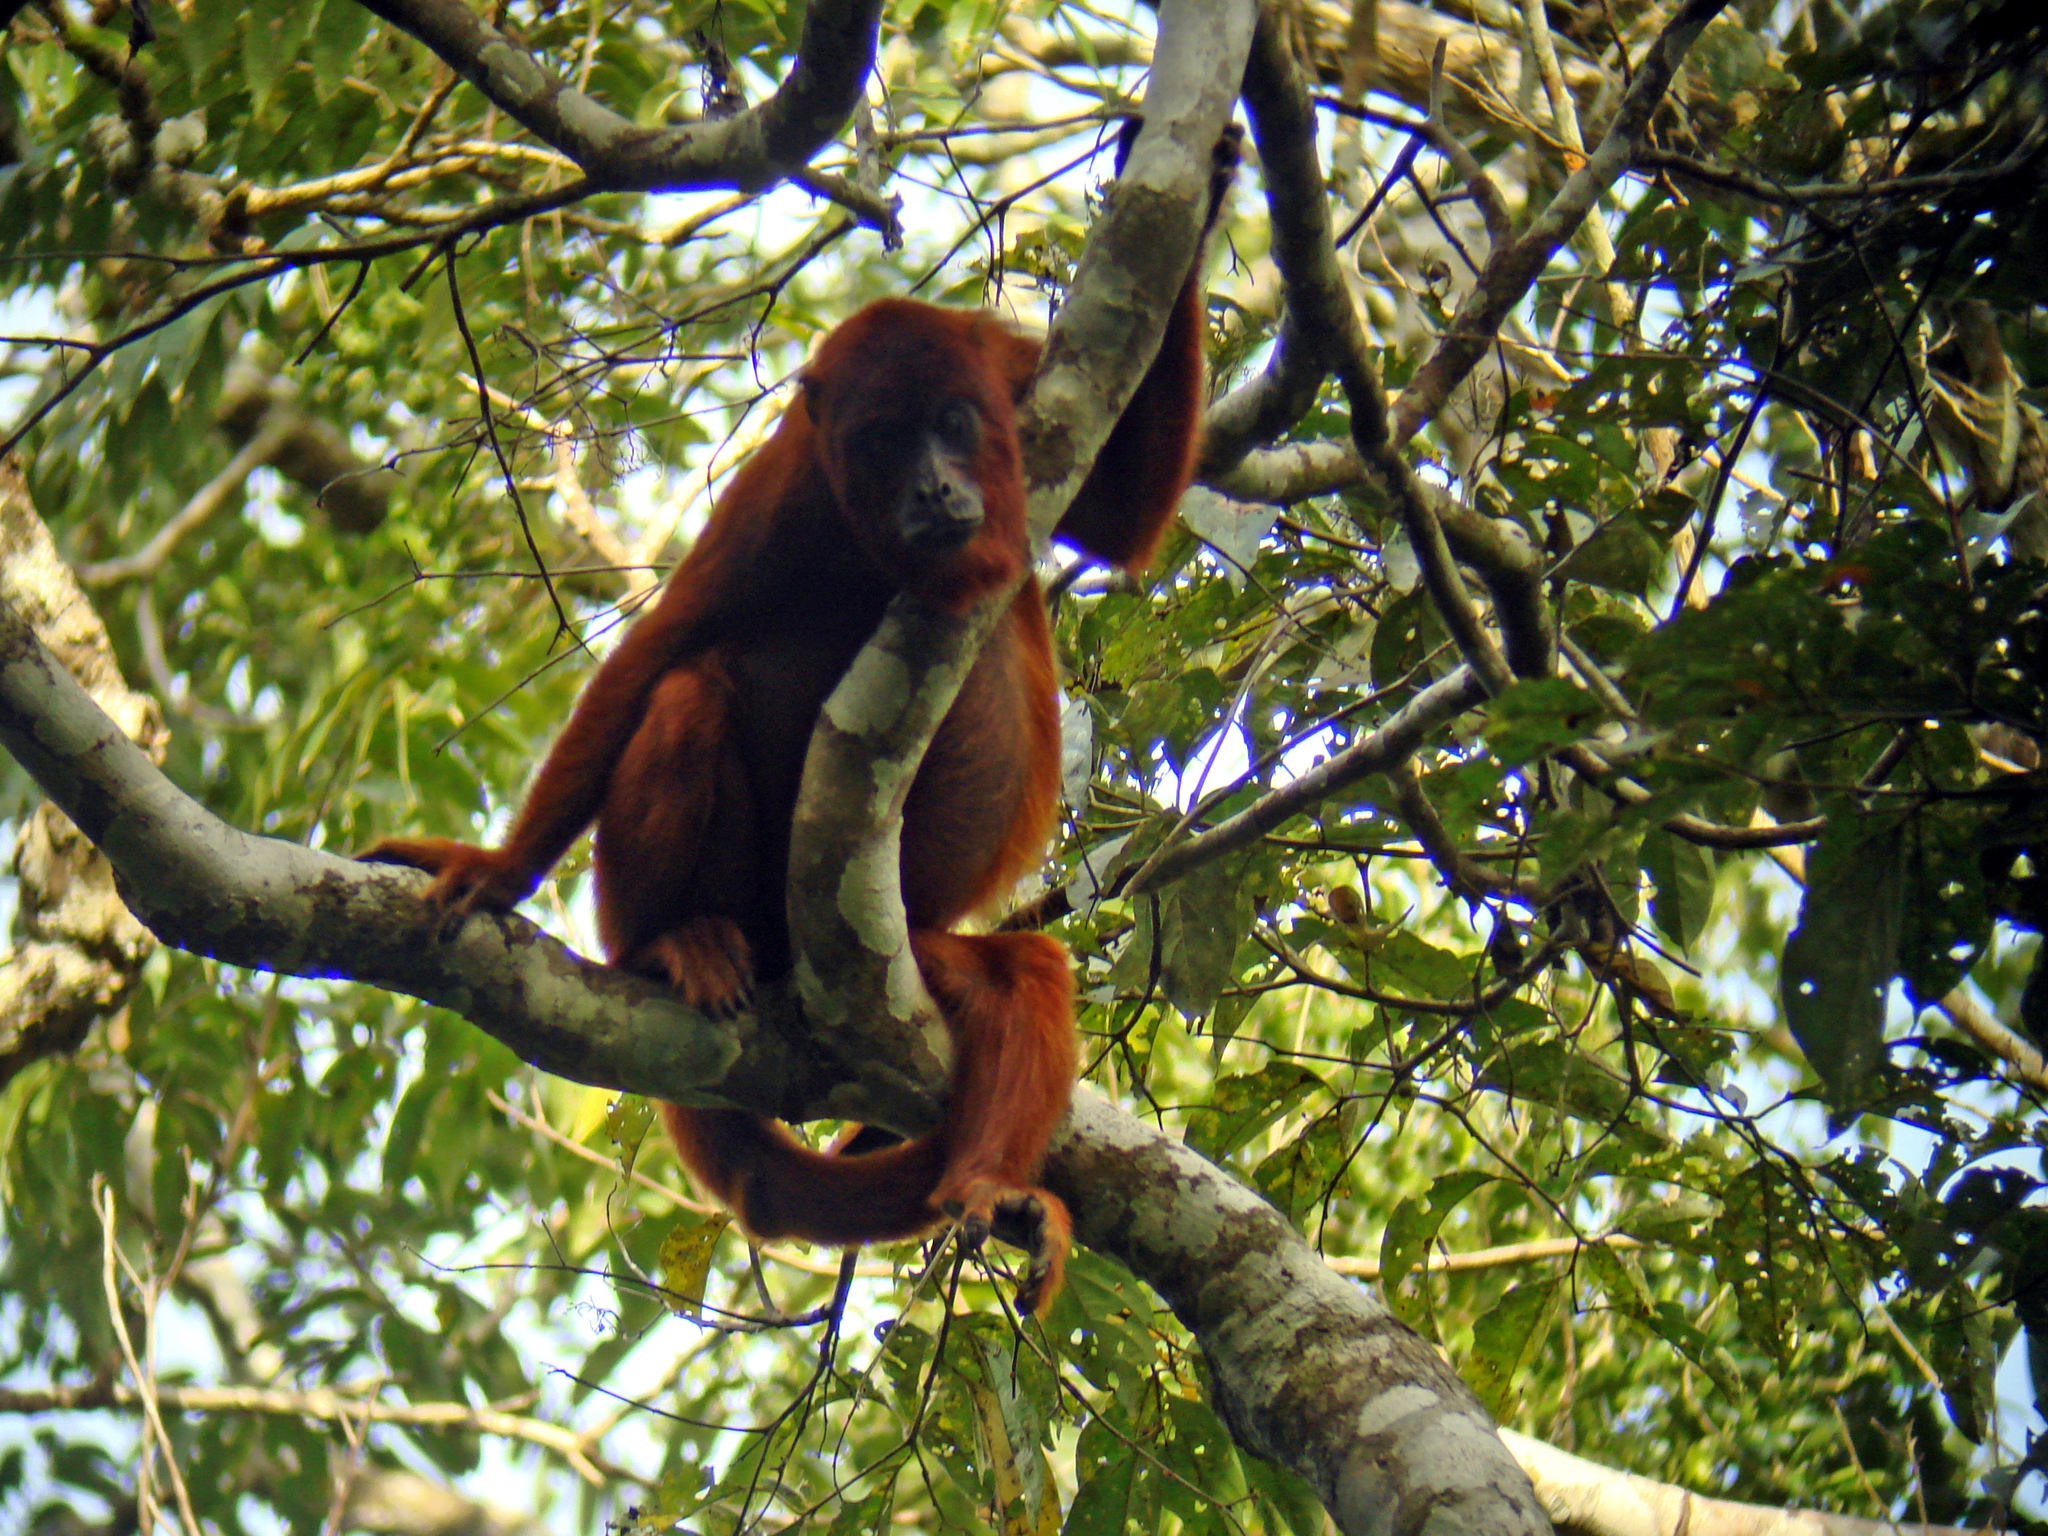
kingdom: Animalia
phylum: Chordata
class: Mammalia
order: Primates
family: Atelidae
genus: Alouatta
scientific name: Alouatta sara
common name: Bolivian red howler
